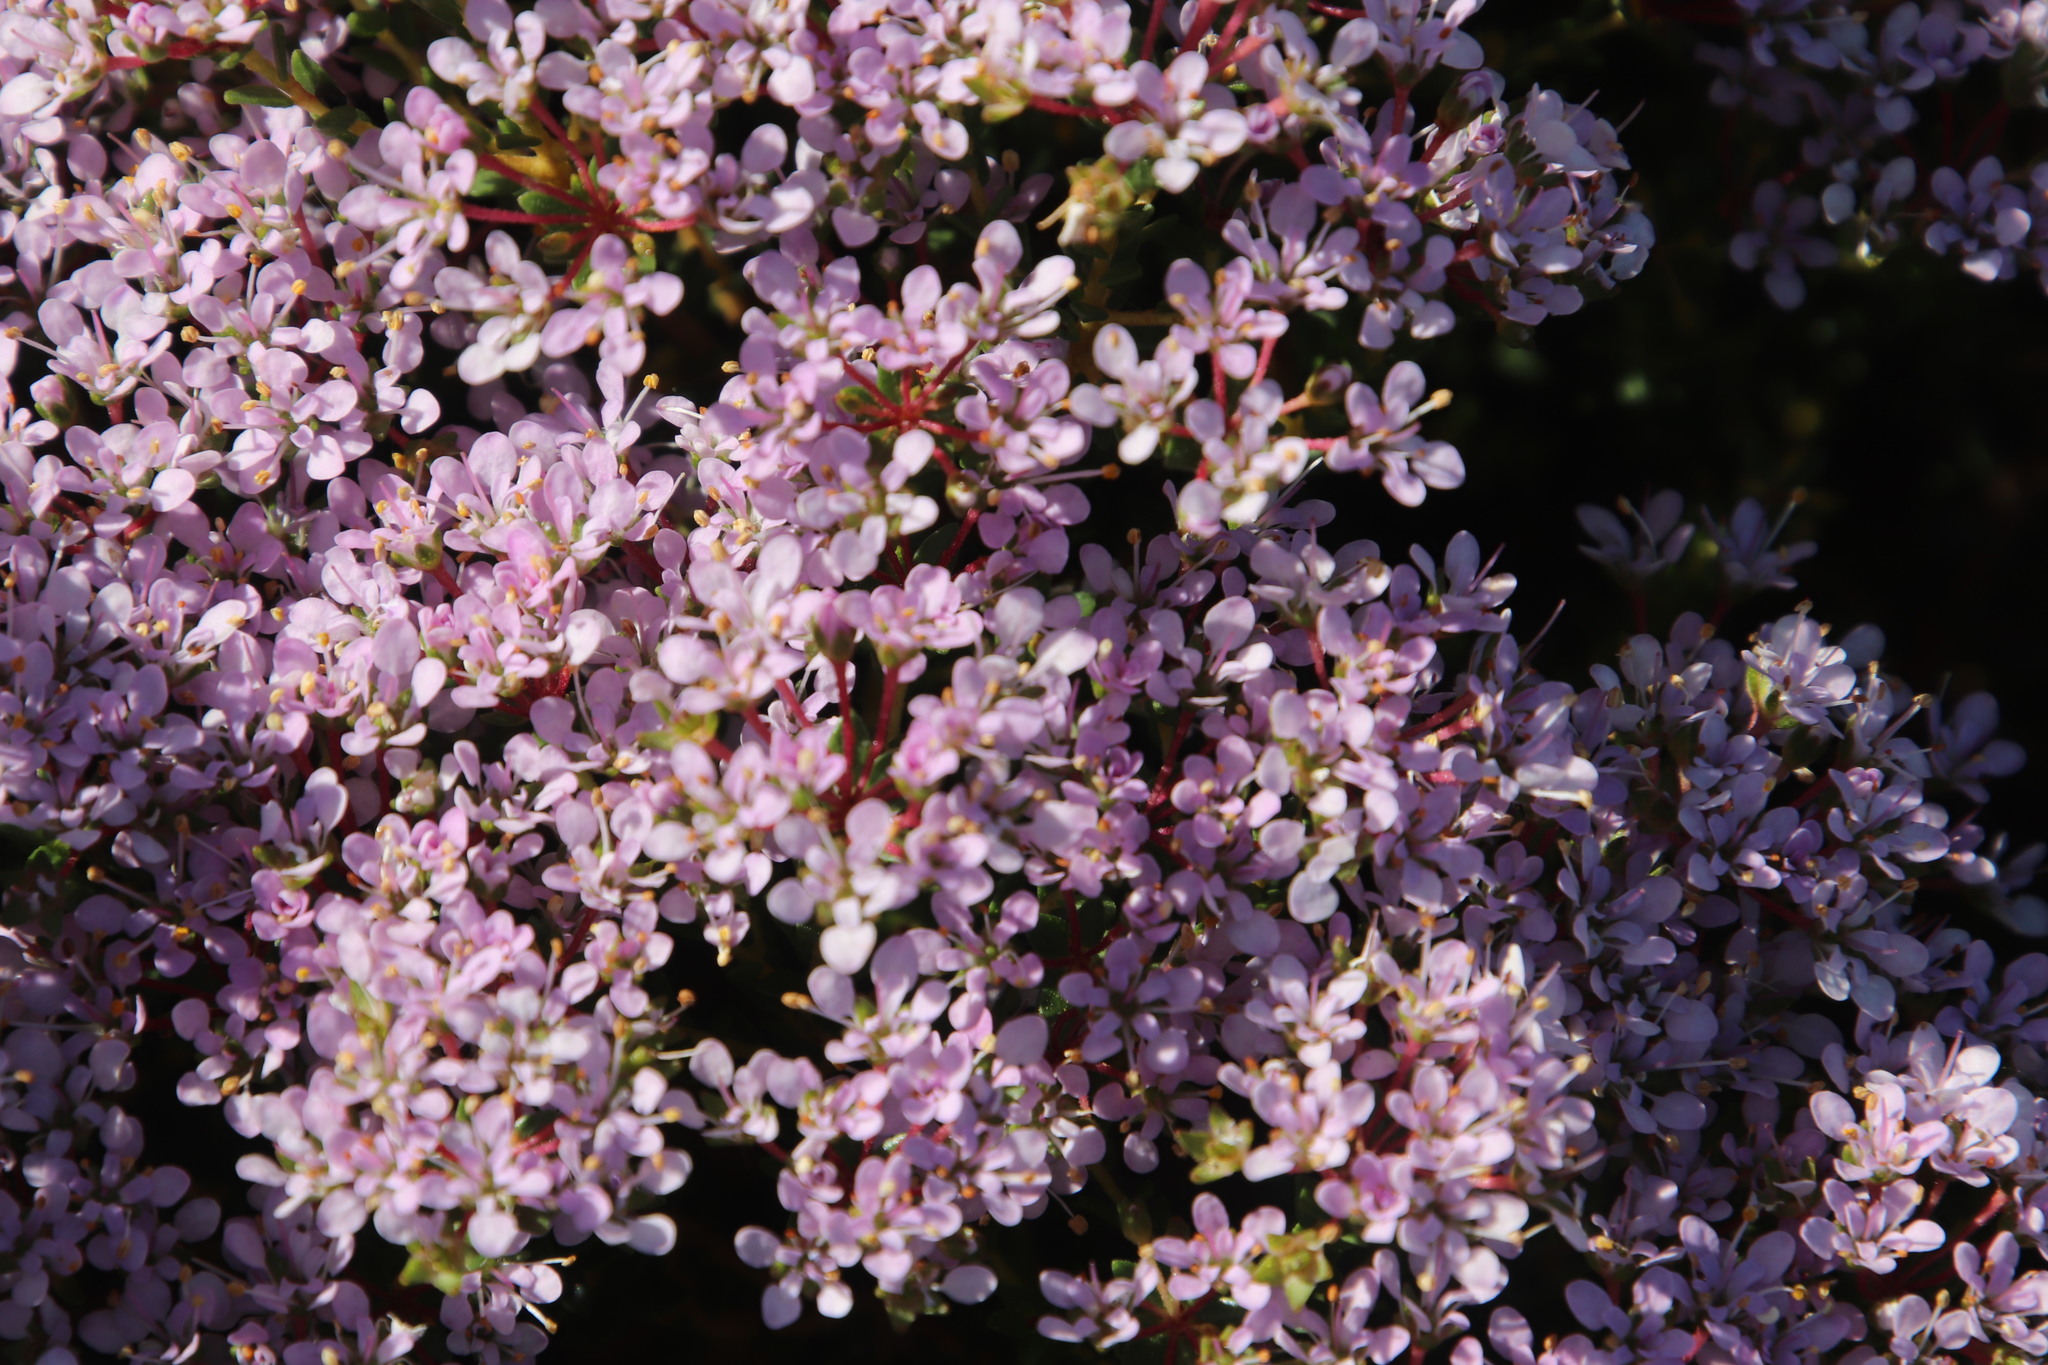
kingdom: Plantae
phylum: Tracheophyta
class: Magnoliopsida
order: Sapindales
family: Rutaceae
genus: Agathosma
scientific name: Agathosma glabrata
